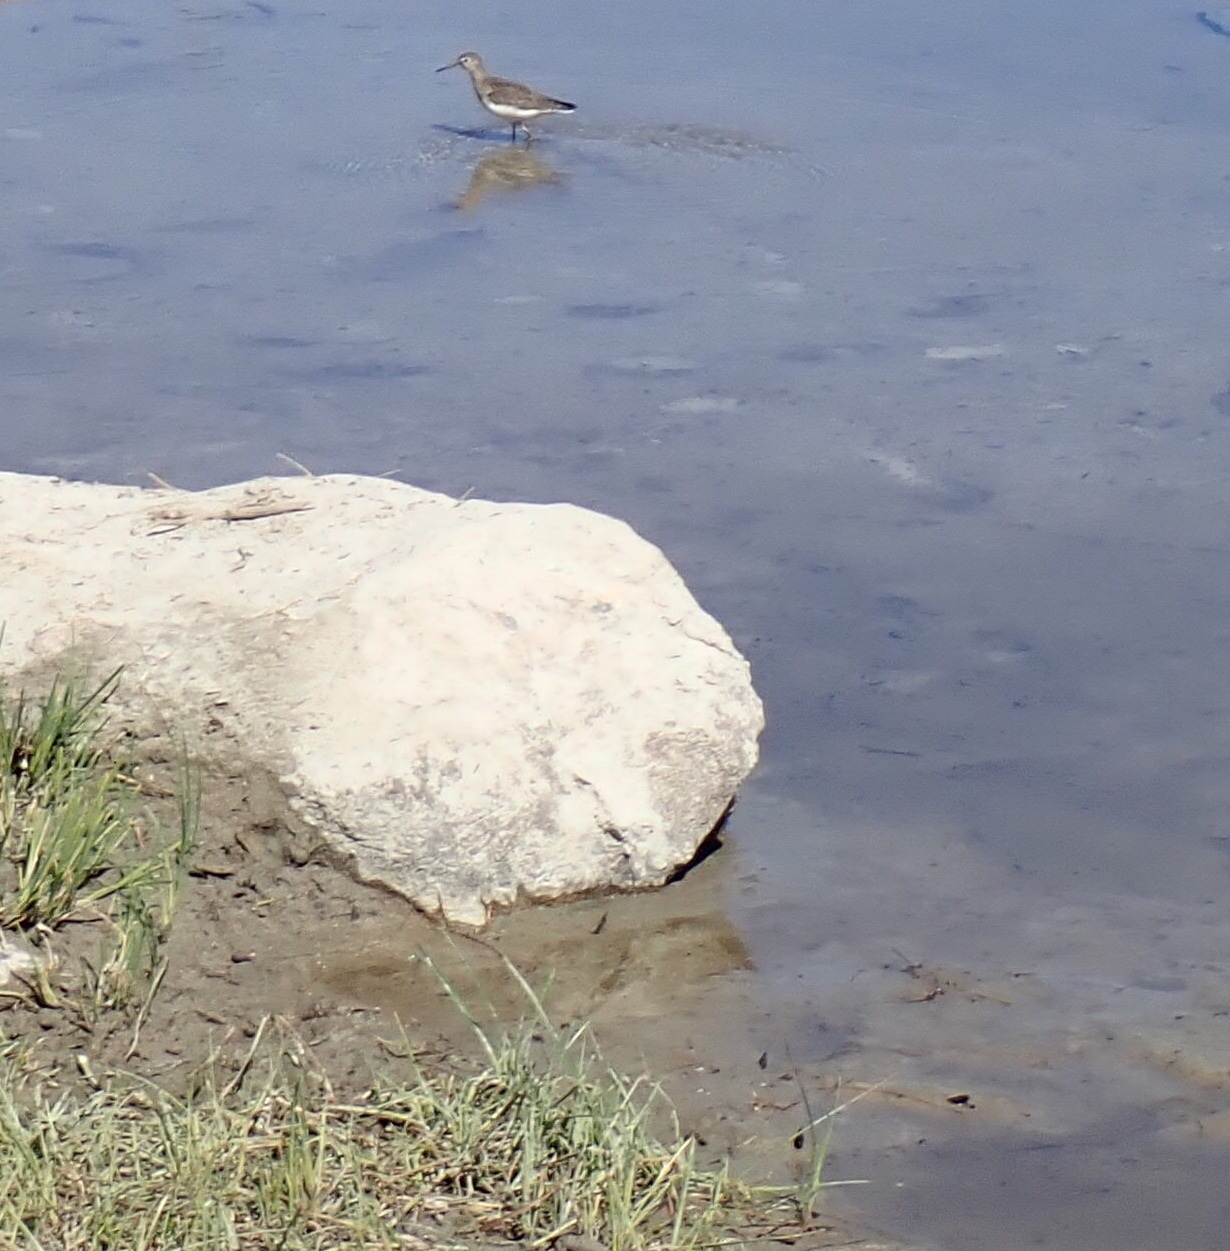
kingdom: Animalia
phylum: Chordata
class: Aves
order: Charadriiformes
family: Scolopacidae
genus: Tringa
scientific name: Tringa solitaria
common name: Solitary sandpiper
